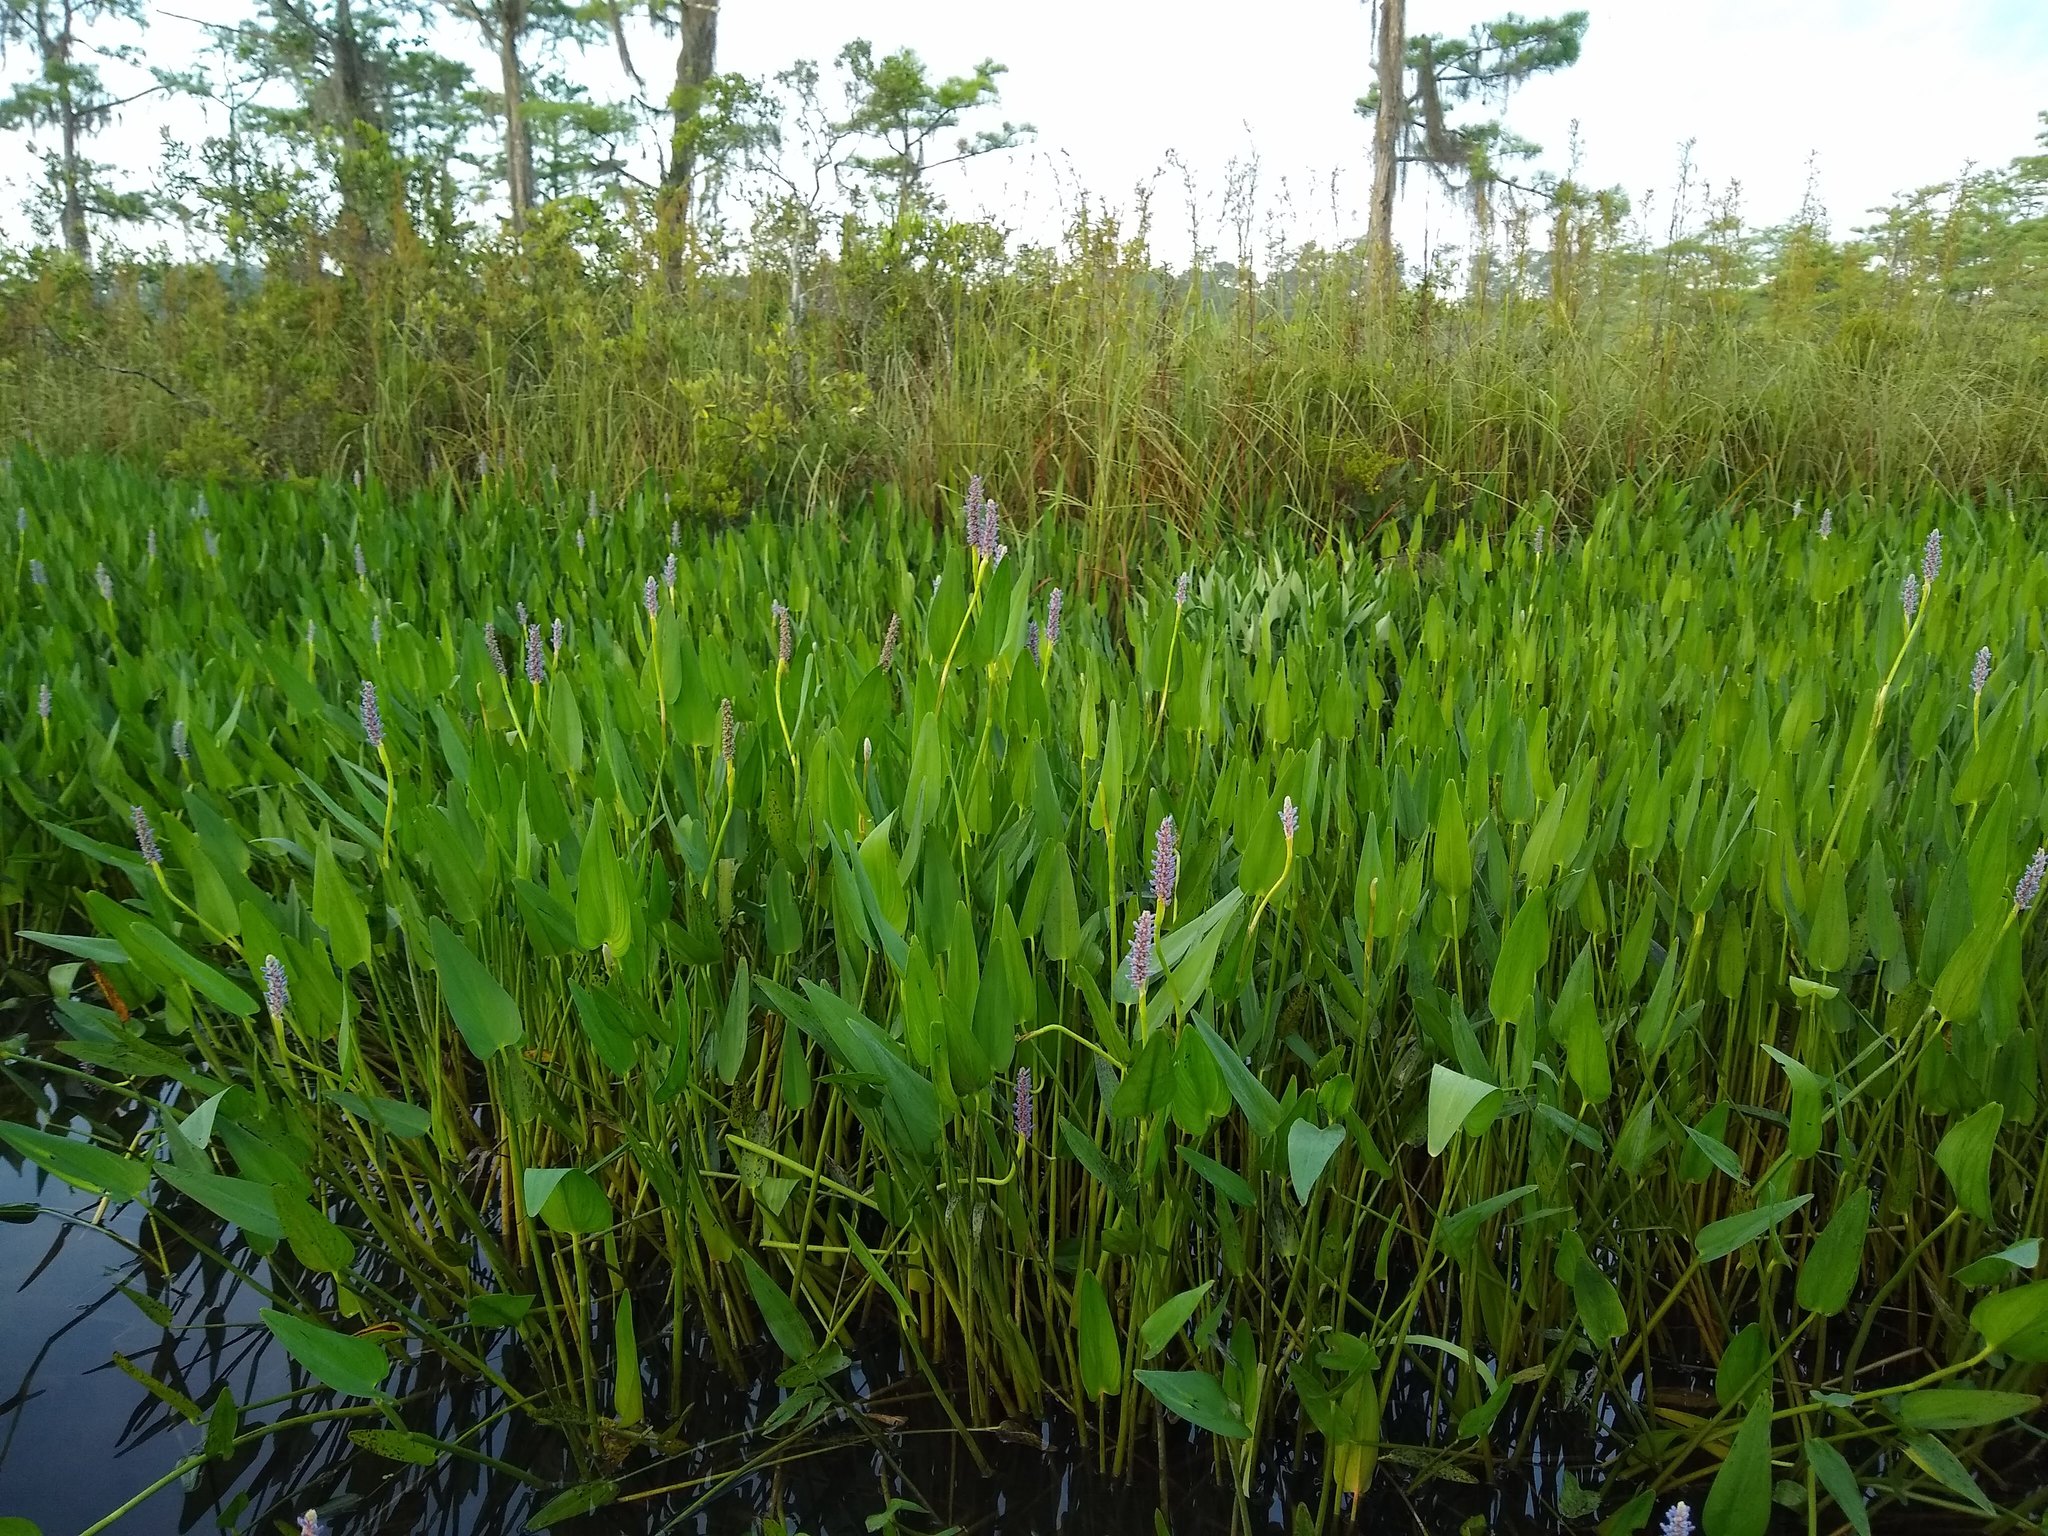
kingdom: Plantae
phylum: Tracheophyta
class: Liliopsida
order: Commelinales
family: Pontederiaceae
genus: Pontederia
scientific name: Pontederia cordata
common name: Pickerelweed
